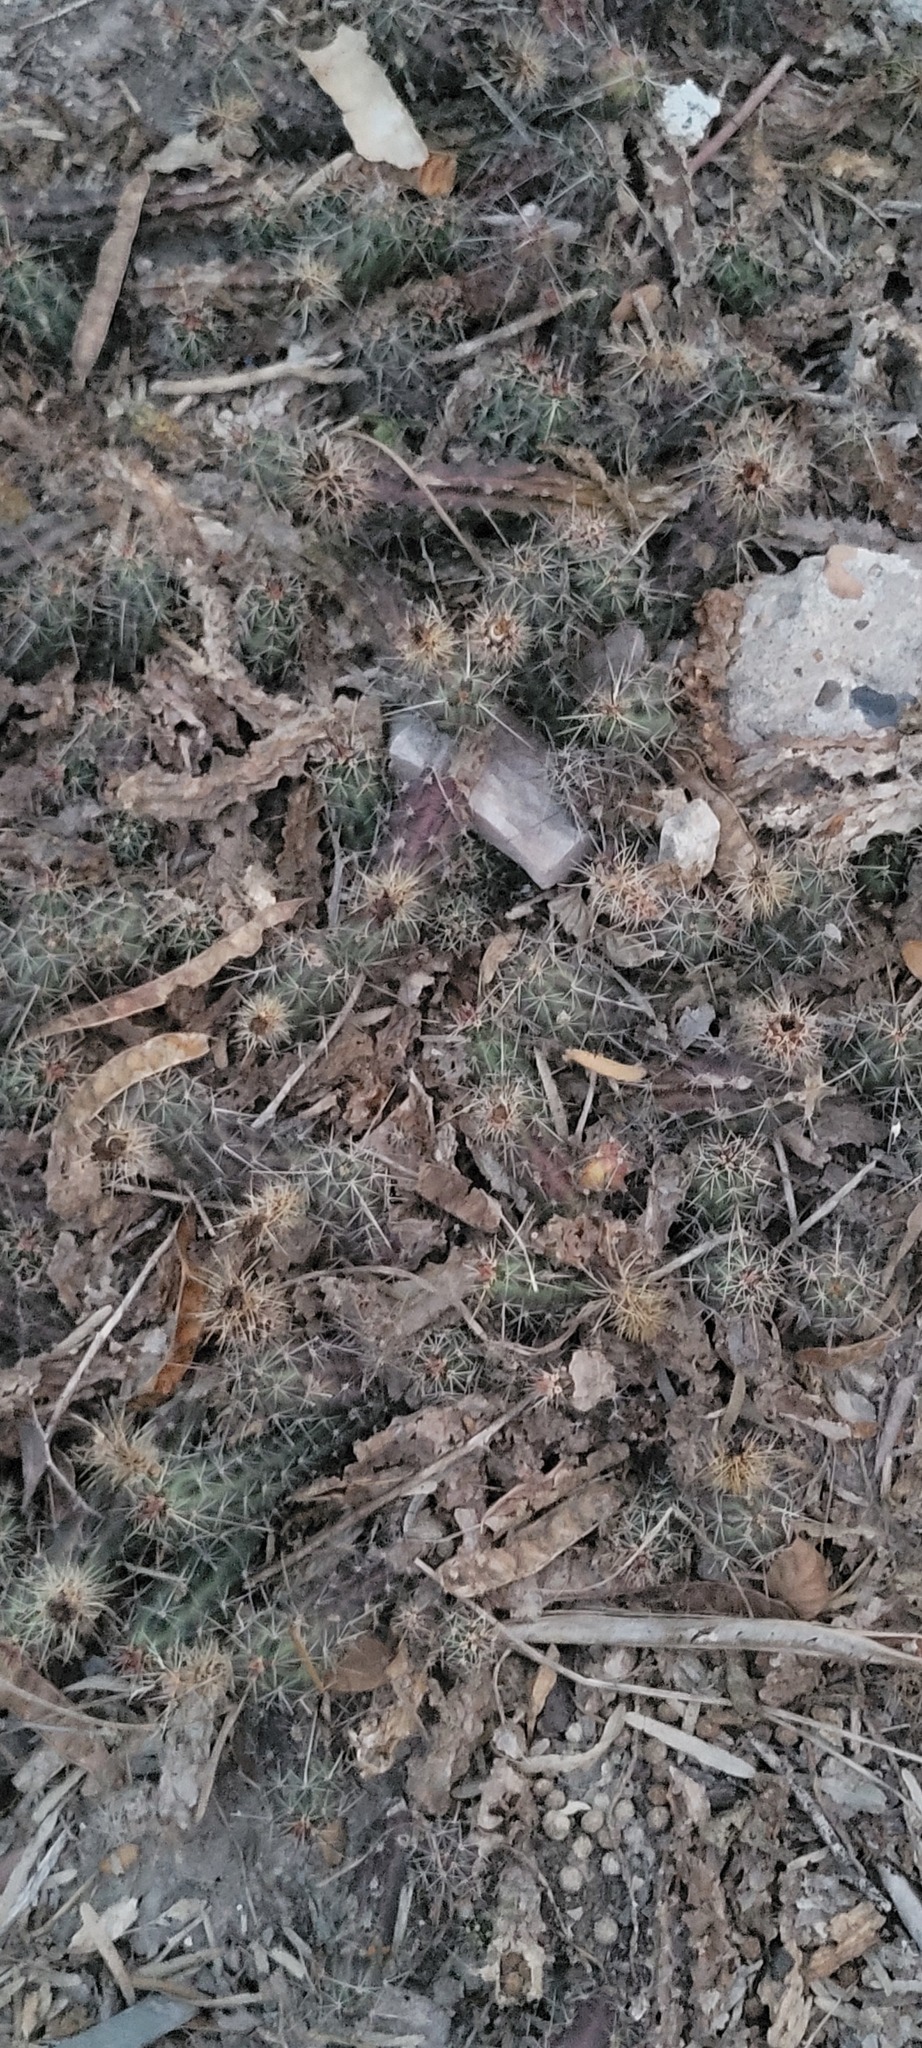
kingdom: Plantae
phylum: Tracheophyta
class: Magnoliopsida
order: Caryophyllales
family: Cactaceae
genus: Echinocereus
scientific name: Echinocereus berlandieri
